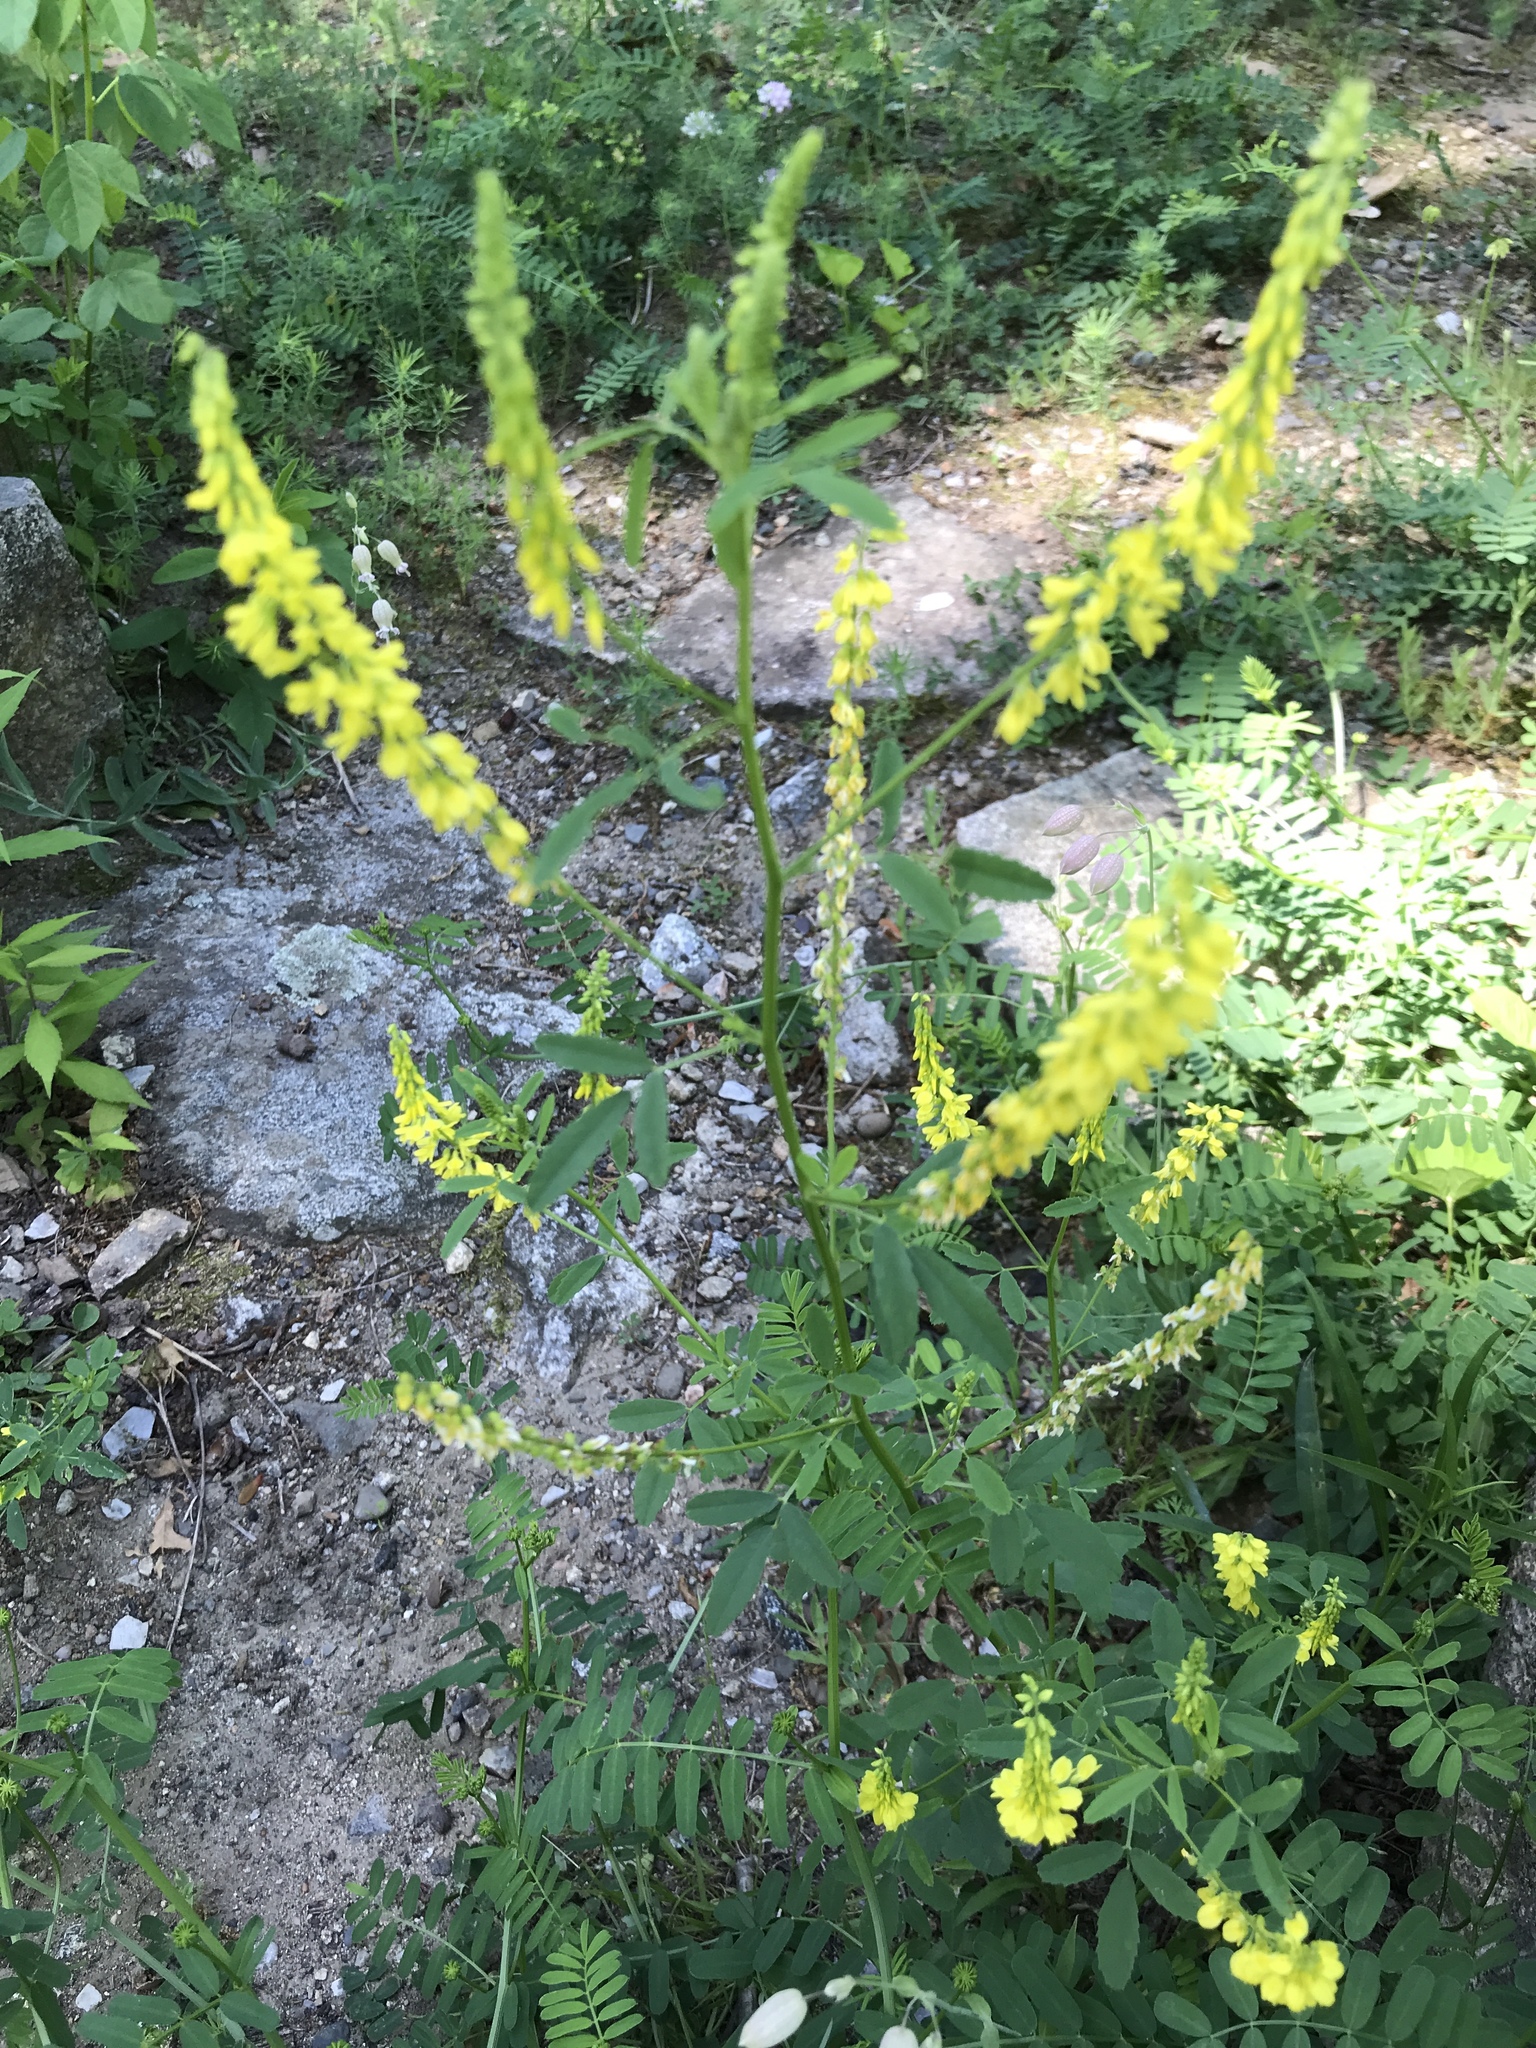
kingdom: Plantae
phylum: Tracheophyta
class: Magnoliopsida
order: Fabales
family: Fabaceae
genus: Melilotus
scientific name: Melilotus officinalis
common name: Sweetclover
